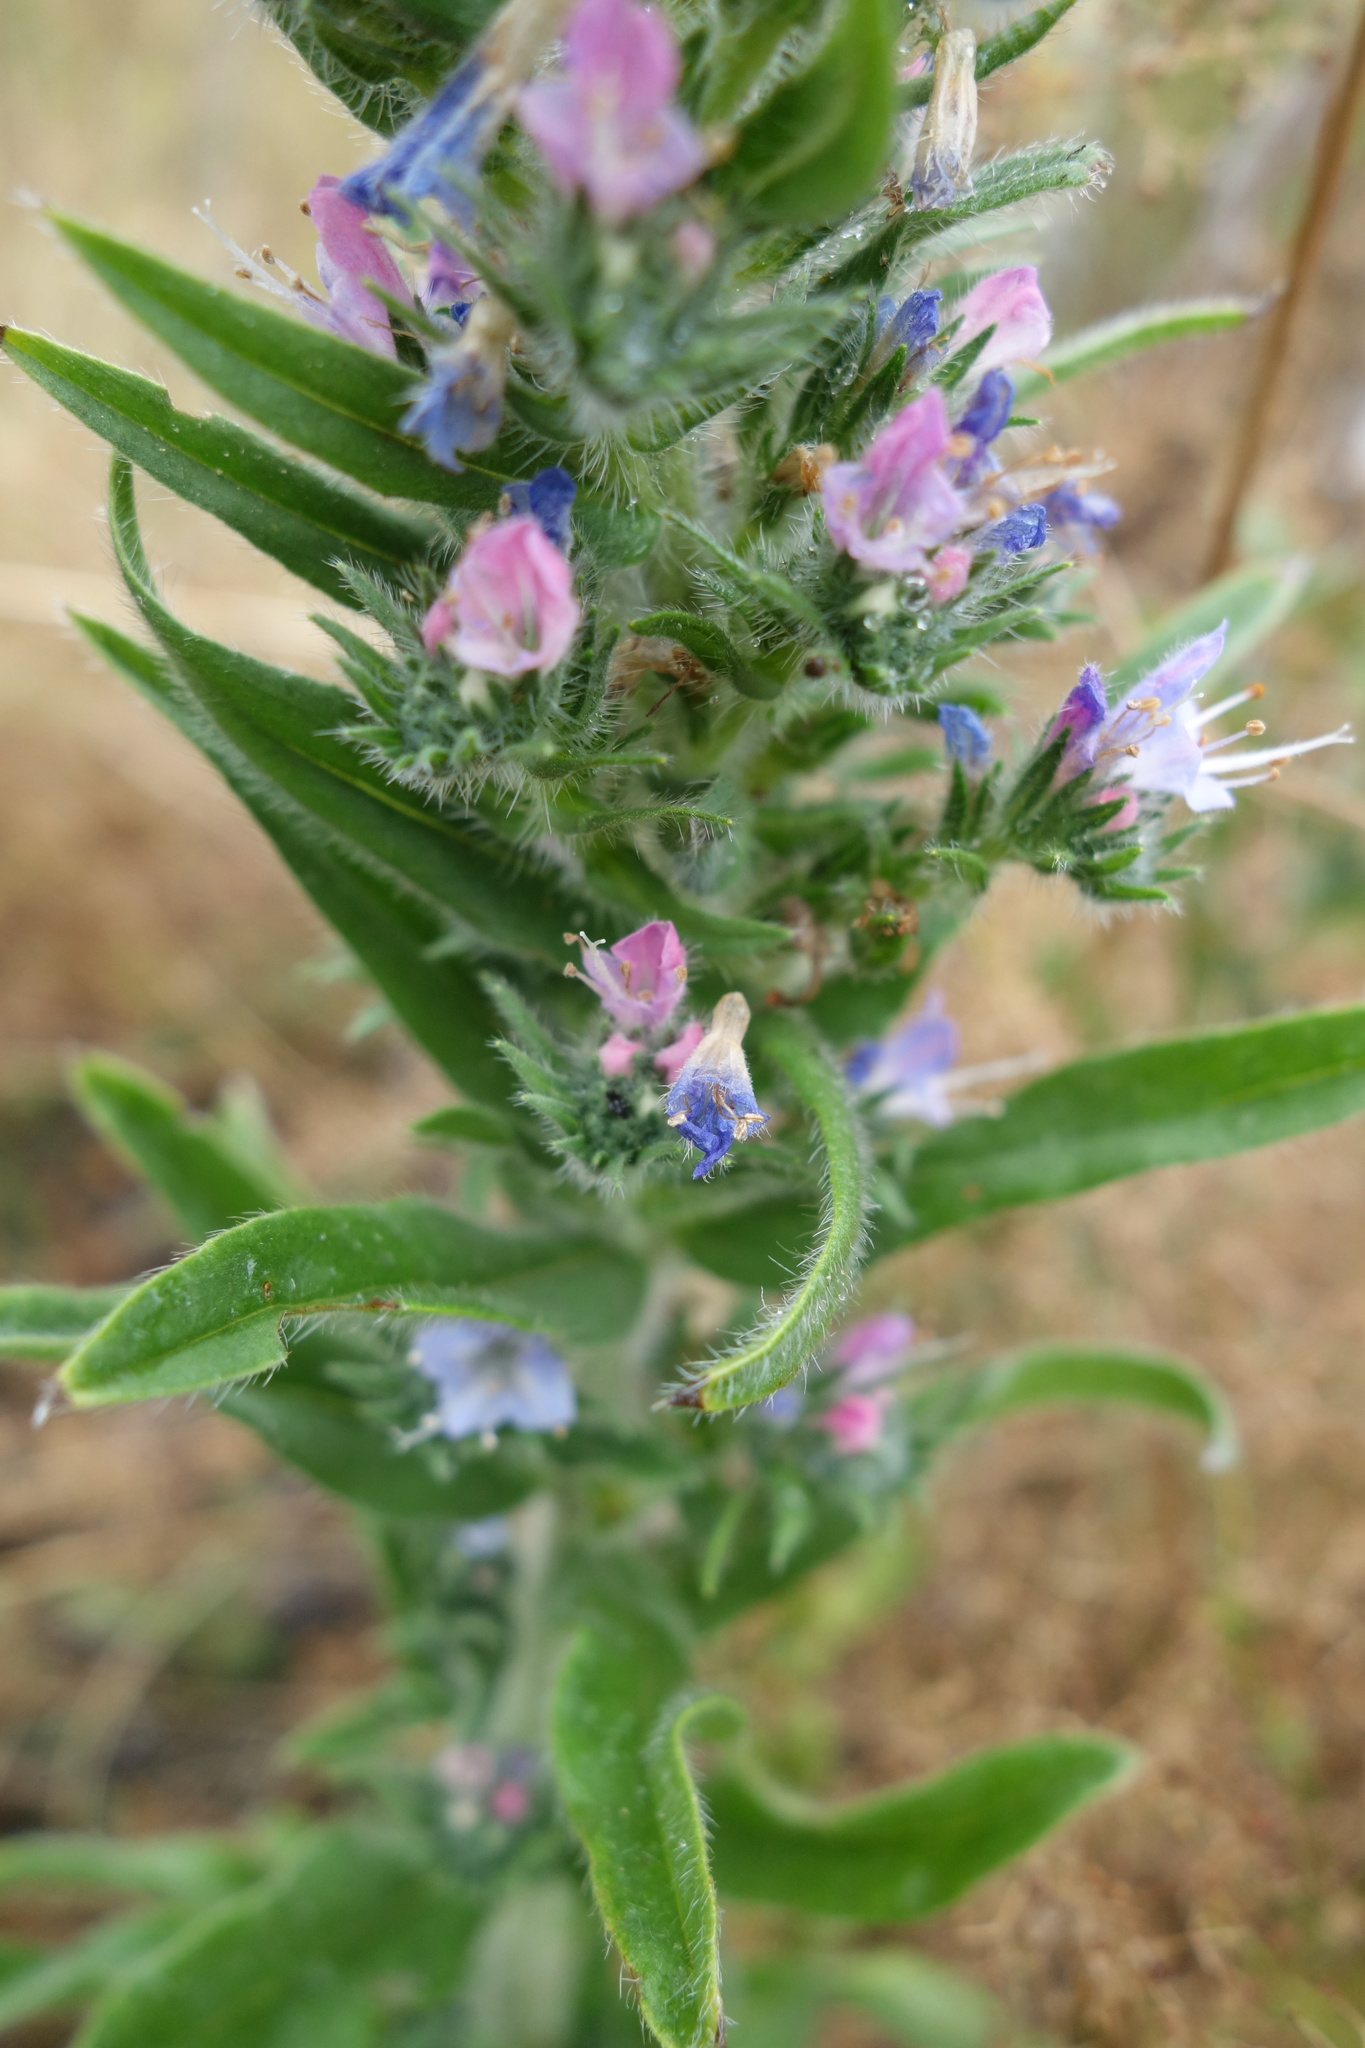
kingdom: Plantae
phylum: Tracheophyta
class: Magnoliopsida
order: Boraginales
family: Boraginaceae
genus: Echium
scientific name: Echium vulgare
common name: Common viper's bugloss
